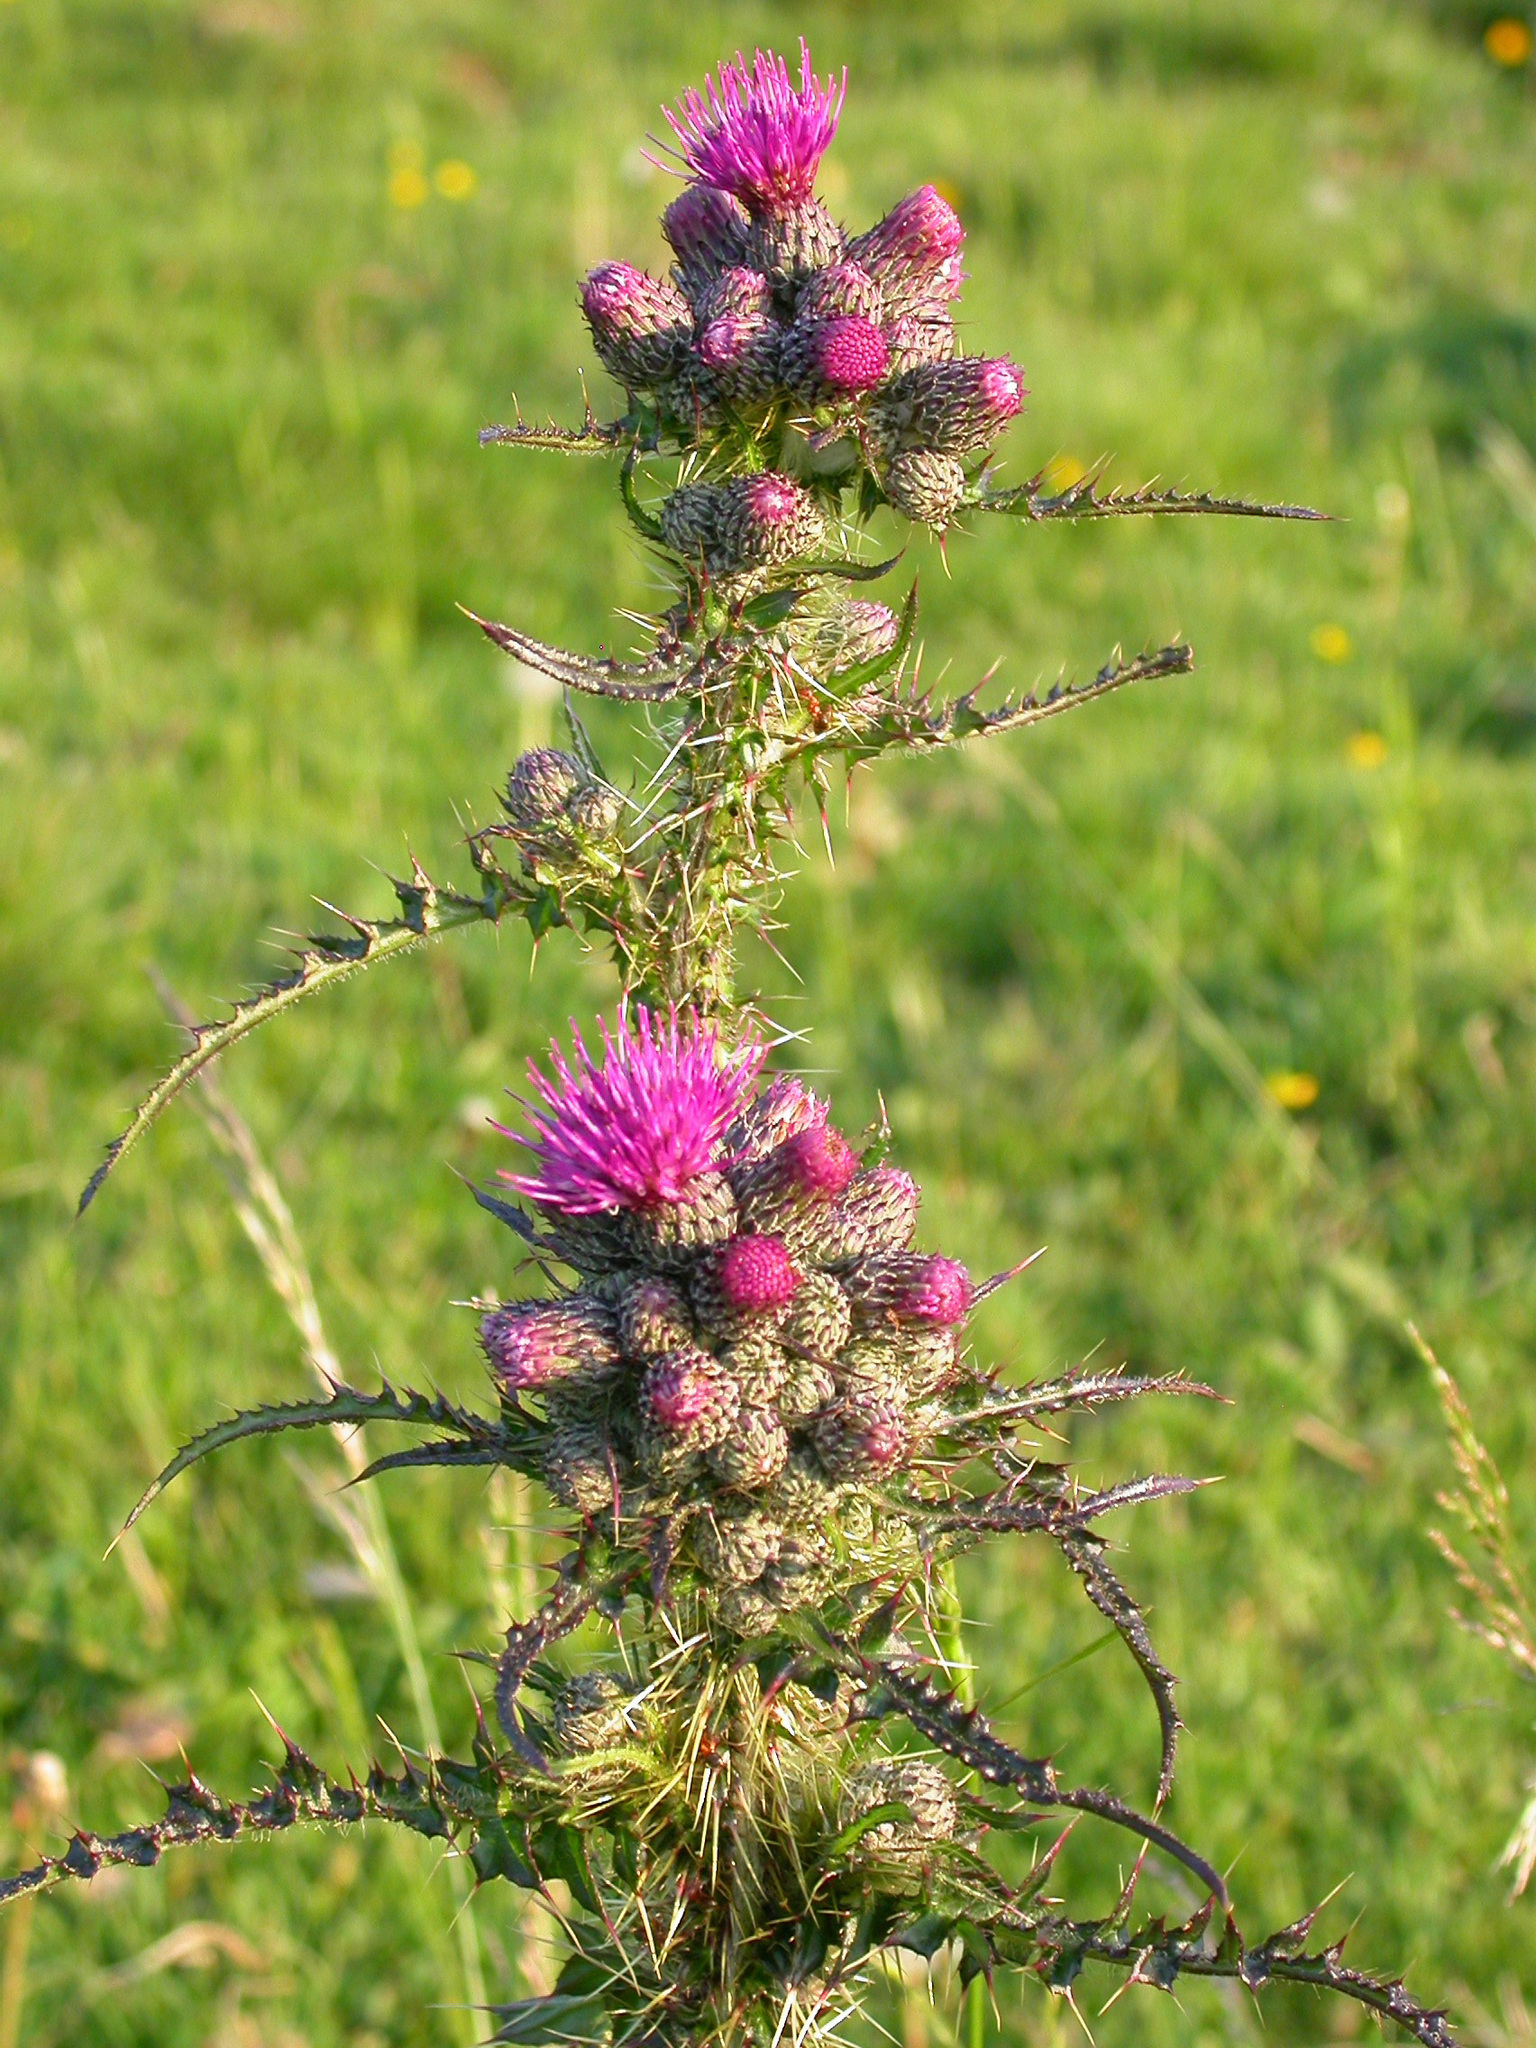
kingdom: Plantae
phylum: Tracheophyta
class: Magnoliopsida
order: Asterales
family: Asteraceae
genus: Cirsium
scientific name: Cirsium palustre
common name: Marsh thistle
